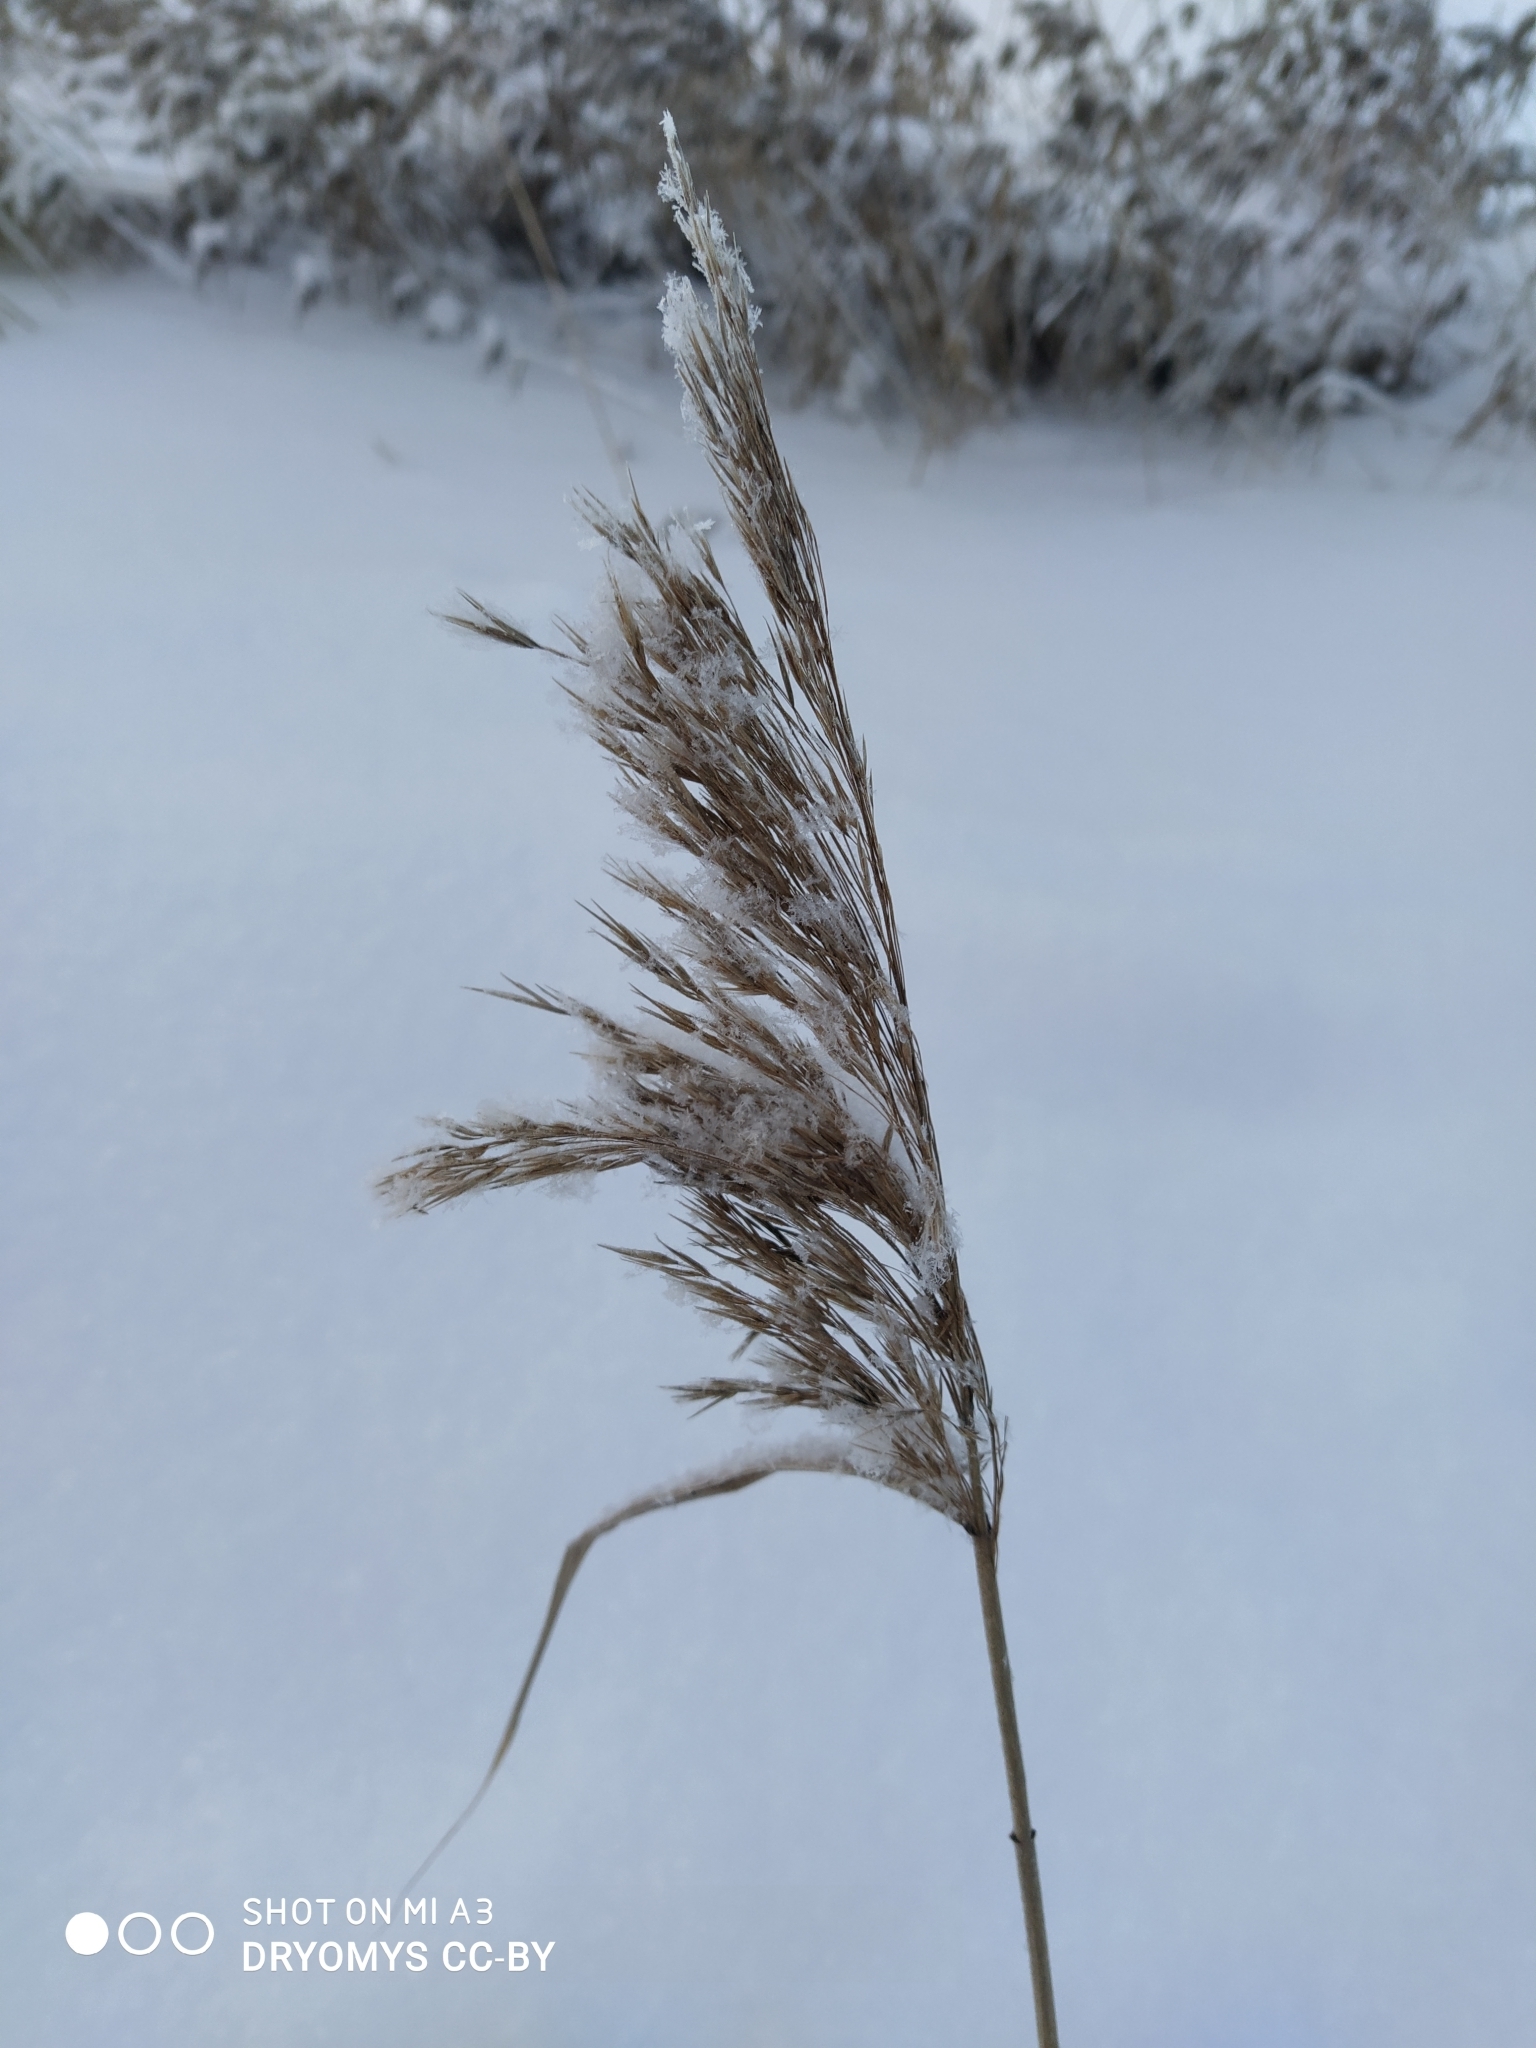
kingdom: Plantae
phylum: Tracheophyta
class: Liliopsida
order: Poales
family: Poaceae
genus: Phragmites
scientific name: Phragmites australis
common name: Common reed
